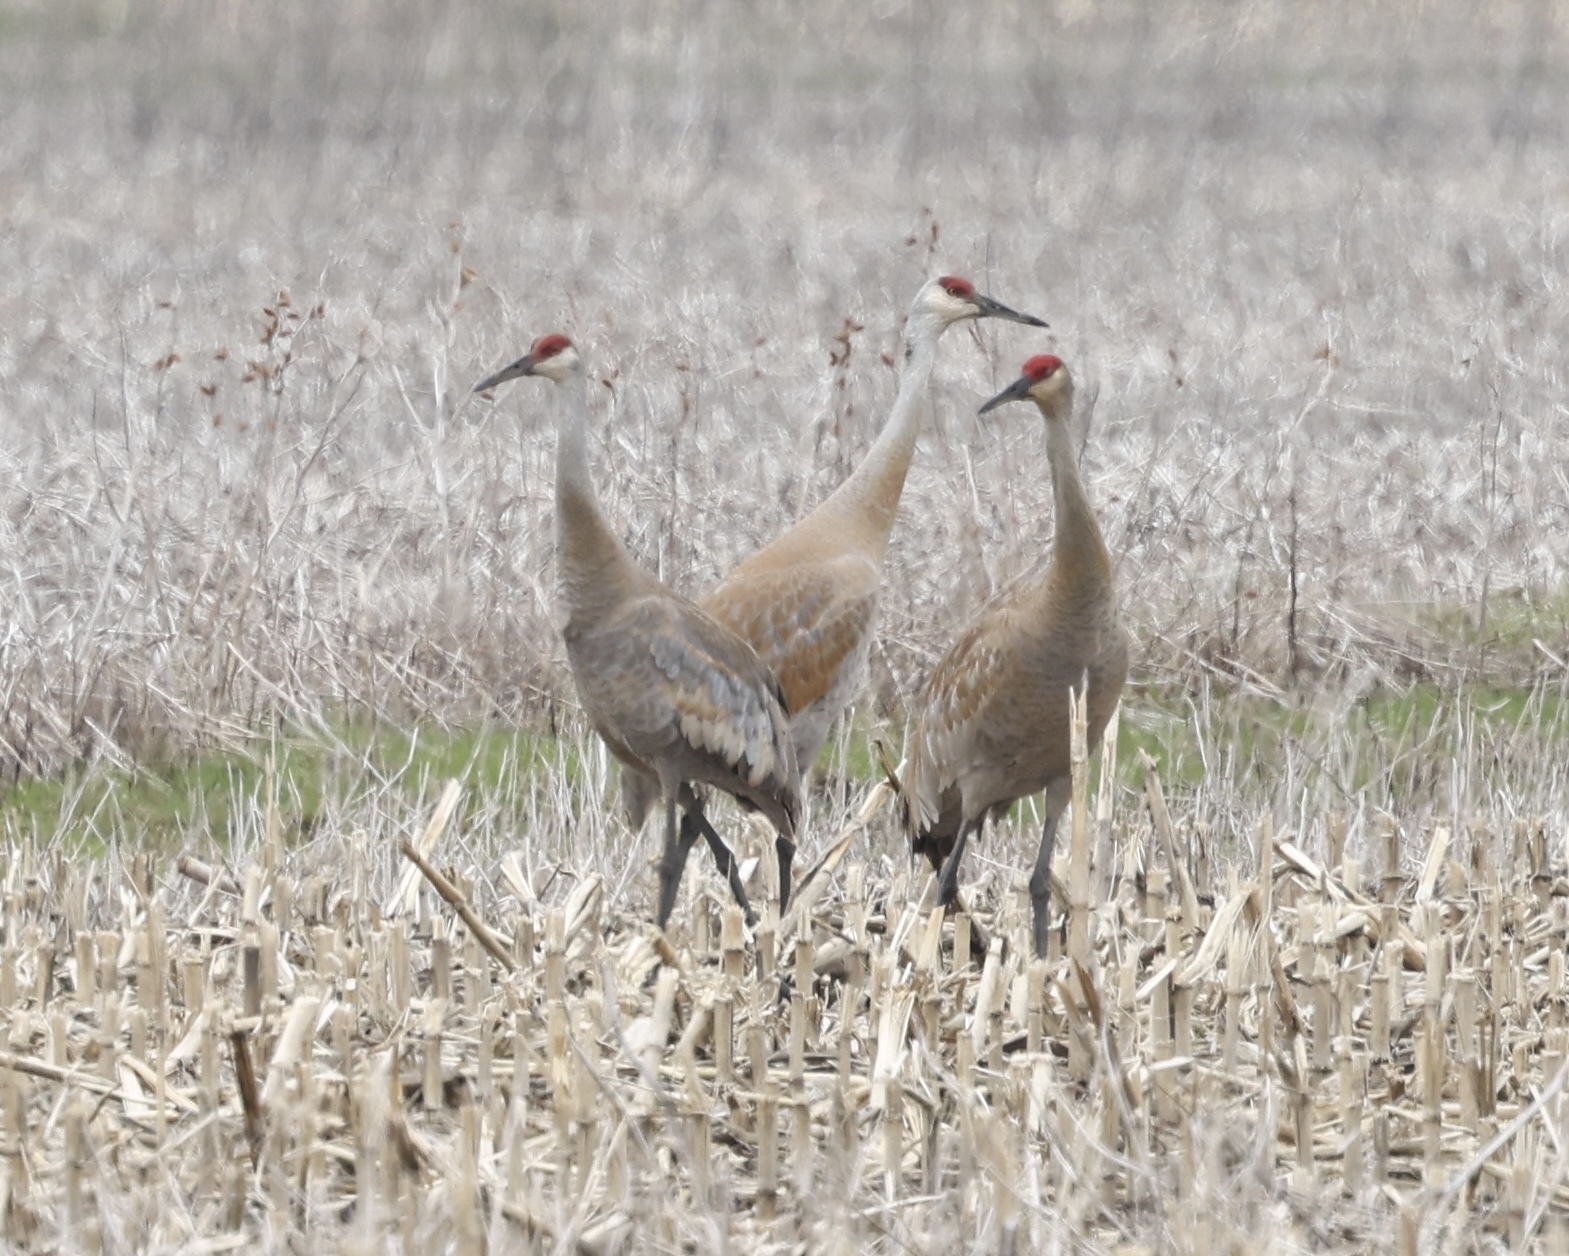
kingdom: Animalia
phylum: Chordata
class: Aves
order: Gruiformes
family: Gruidae
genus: Grus
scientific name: Grus canadensis
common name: Sandhill crane
